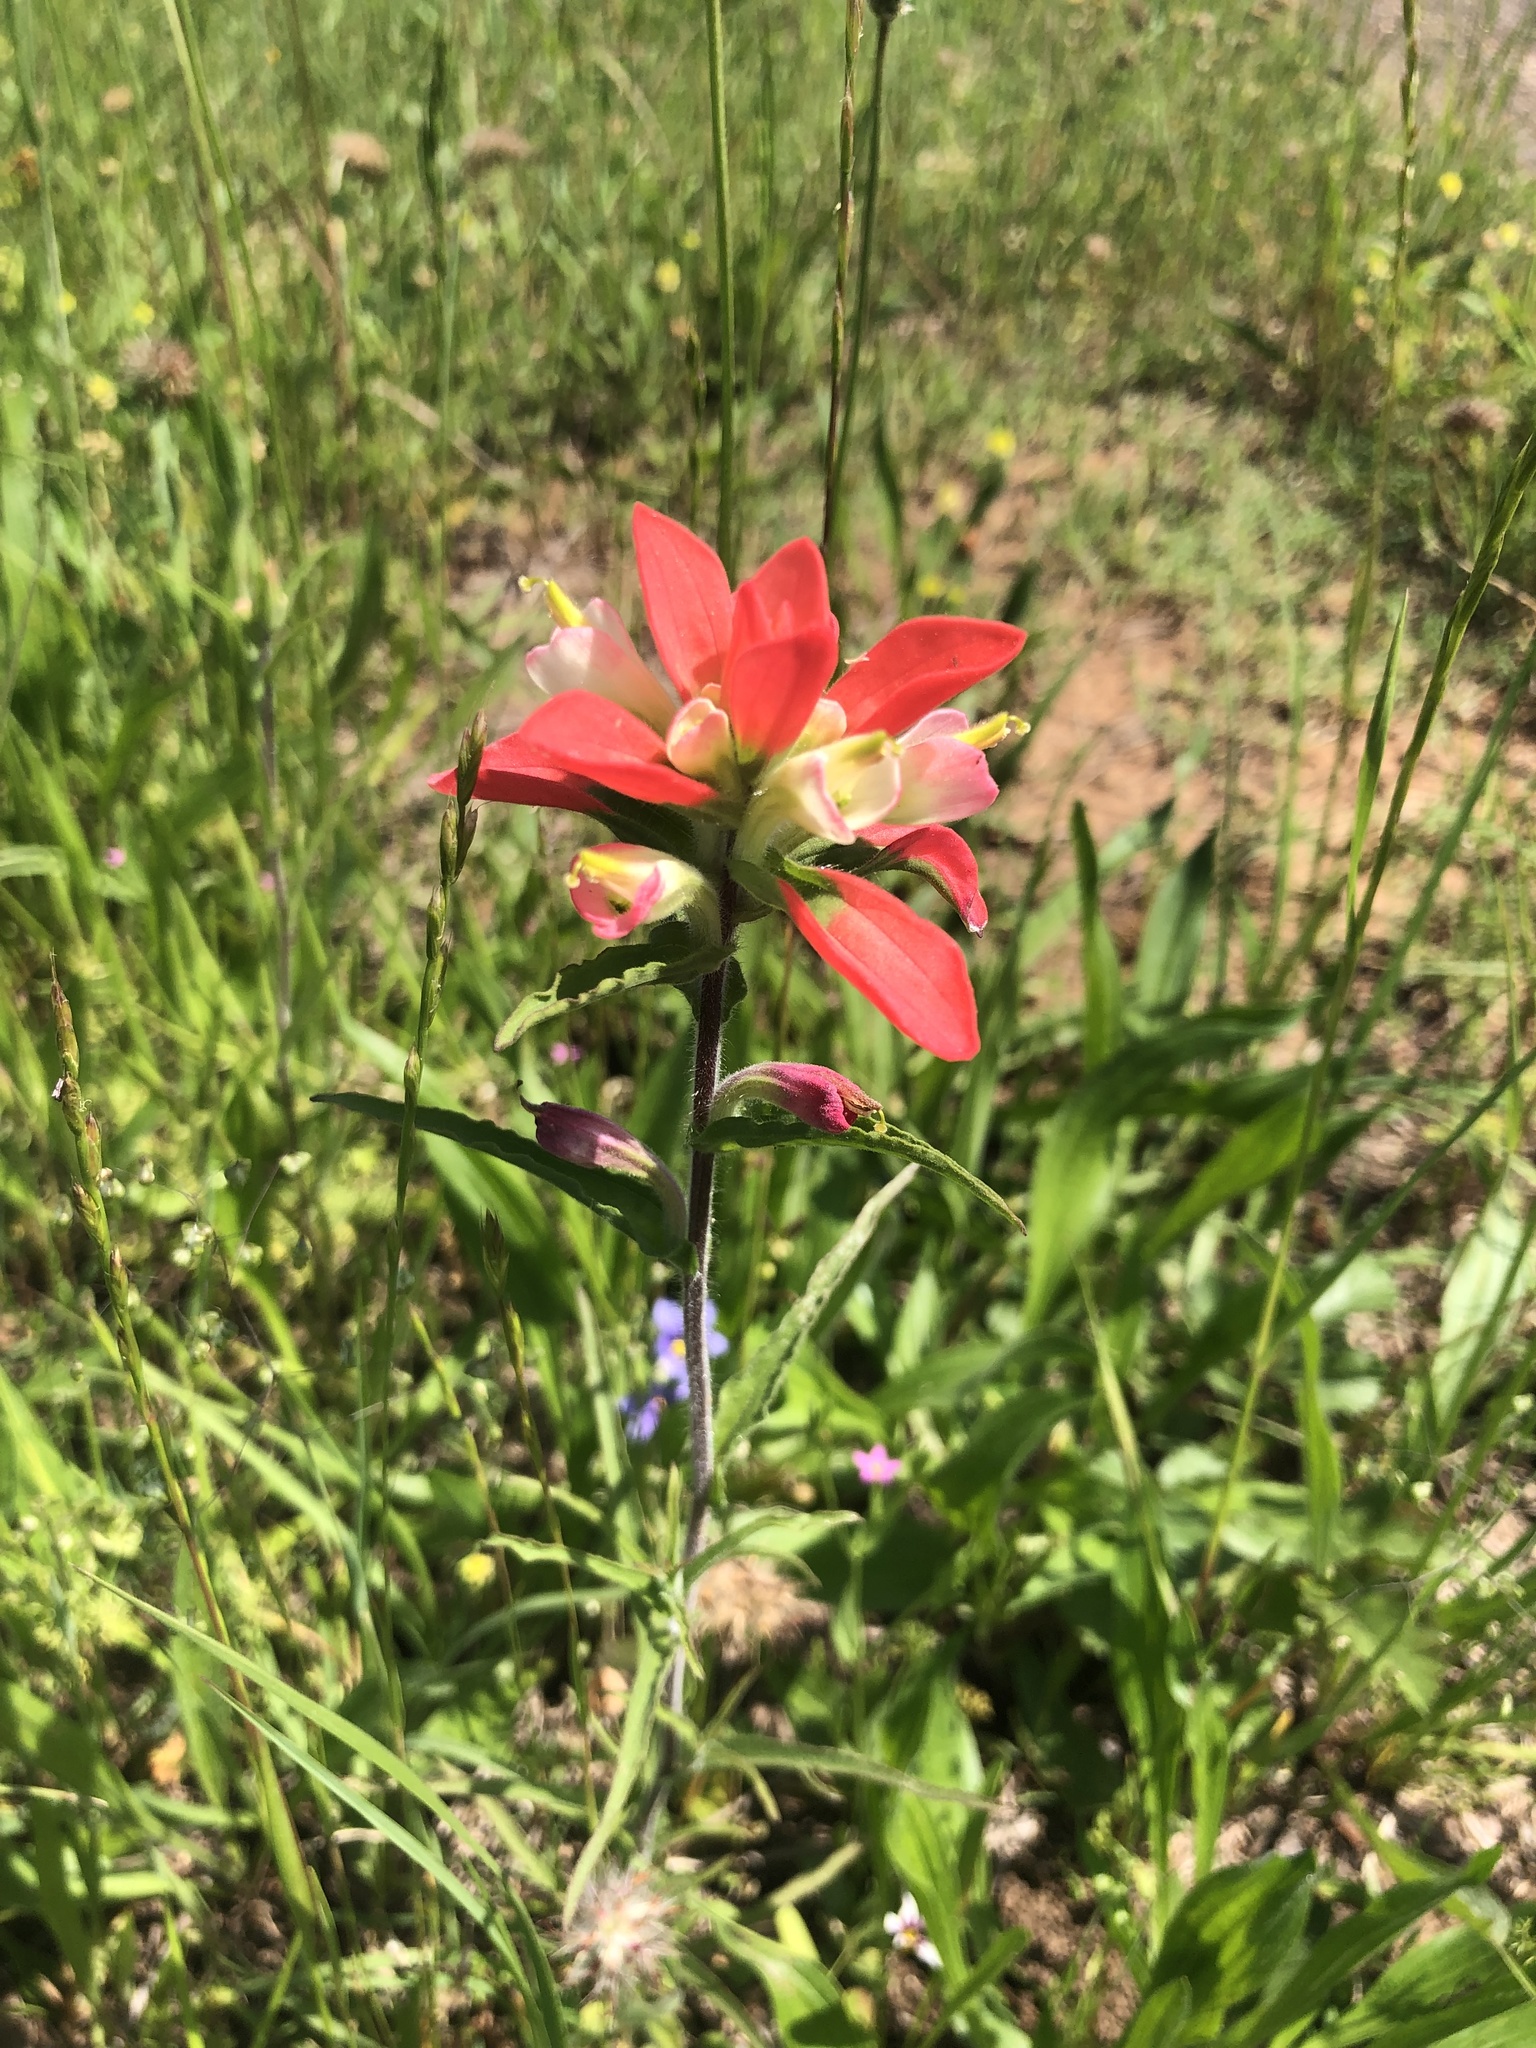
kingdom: Plantae
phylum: Tracheophyta
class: Magnoliopsida
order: Lamiales
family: Orobanchaceae
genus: Castilleja
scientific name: Castilleja indivisa
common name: Texas paintbrush
